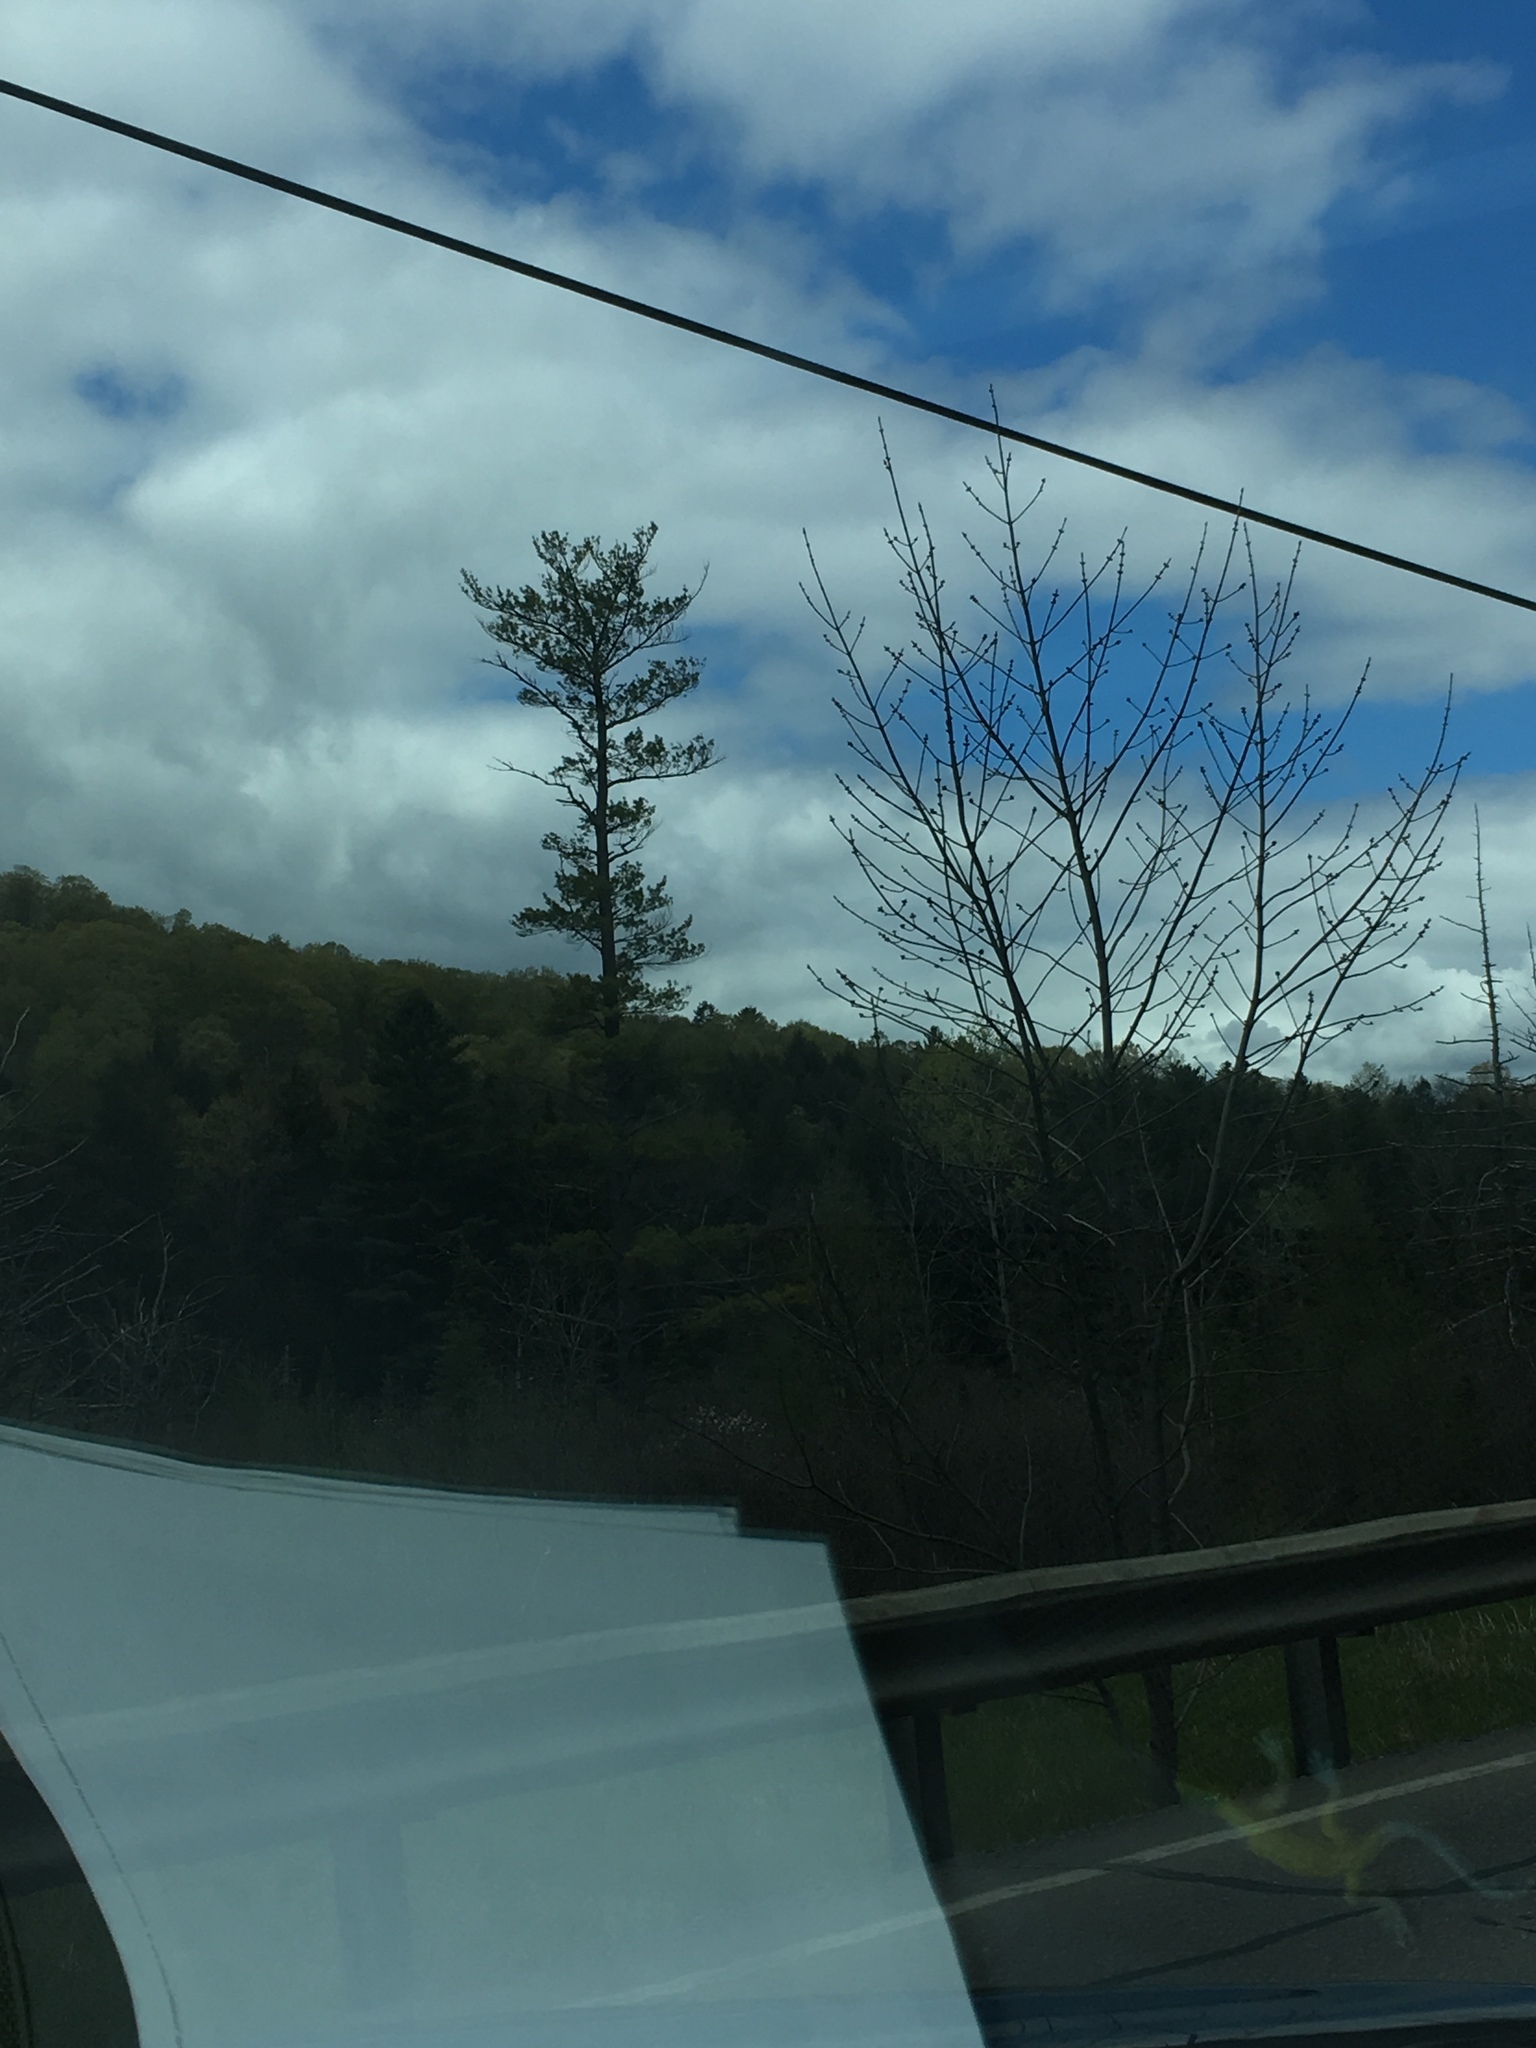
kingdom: Plantae
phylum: Tracheophyta
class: Pinopsida
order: Pinales
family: Pinaceae
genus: Pinus
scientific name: Pinus strobus
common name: Weymouth pine
